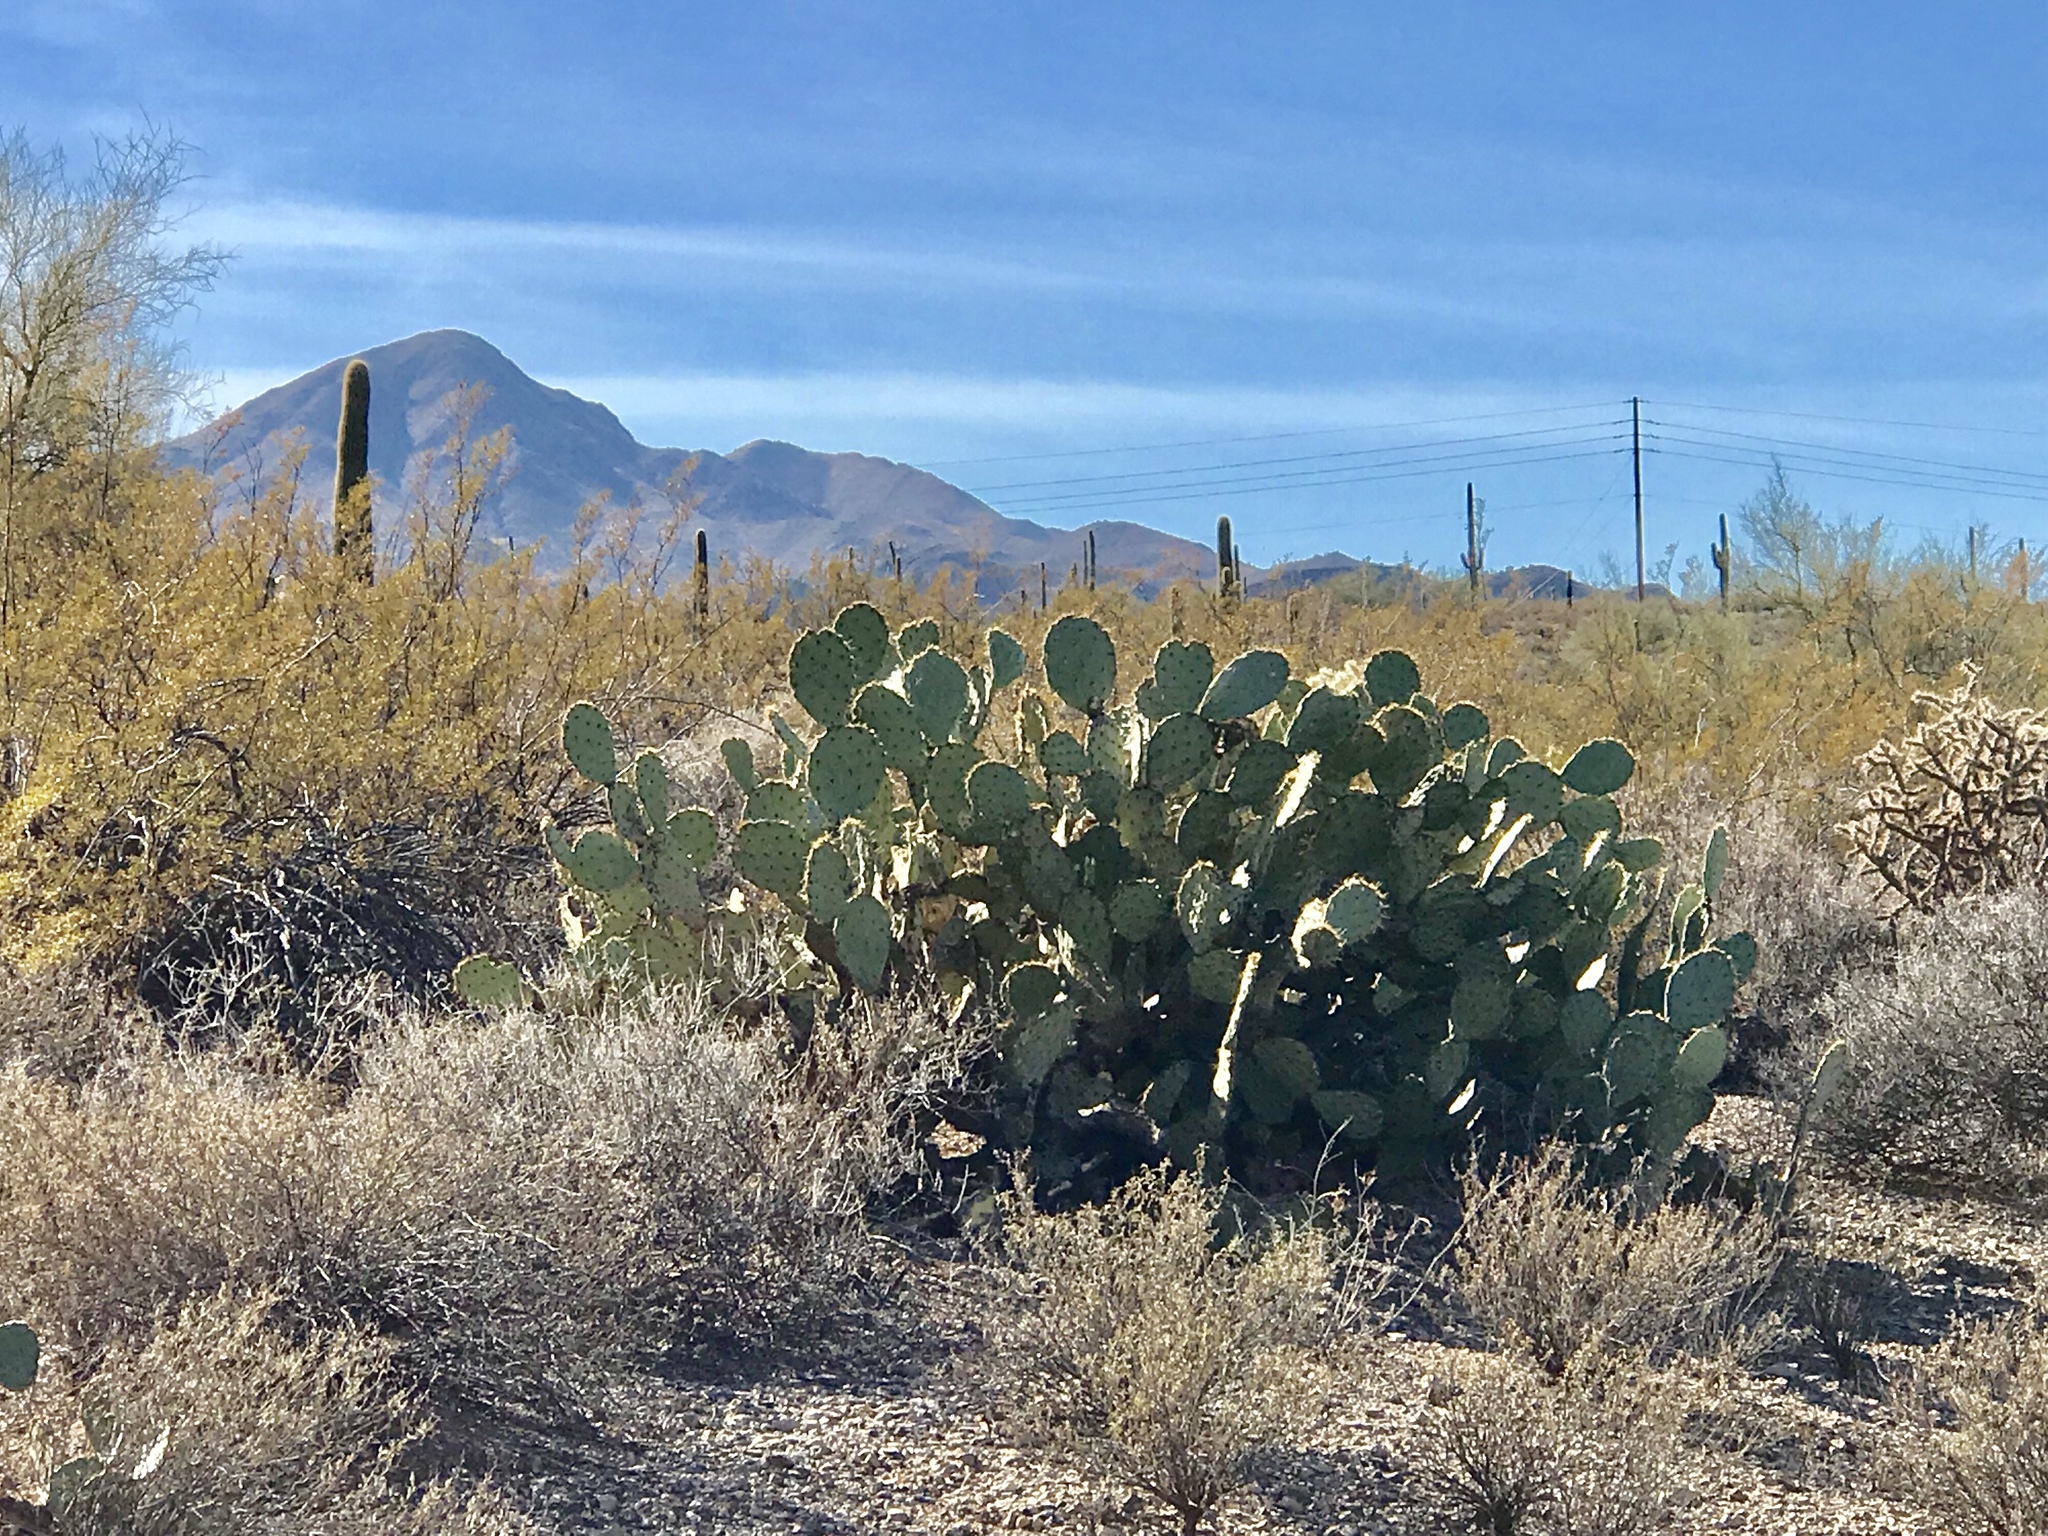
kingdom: Plantae
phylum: Tracheophyta
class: Magnoliopsida
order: Caryophyllales
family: Cactaceae
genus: Opuntia
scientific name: Opuntia engelmannii
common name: Cactus-apple
